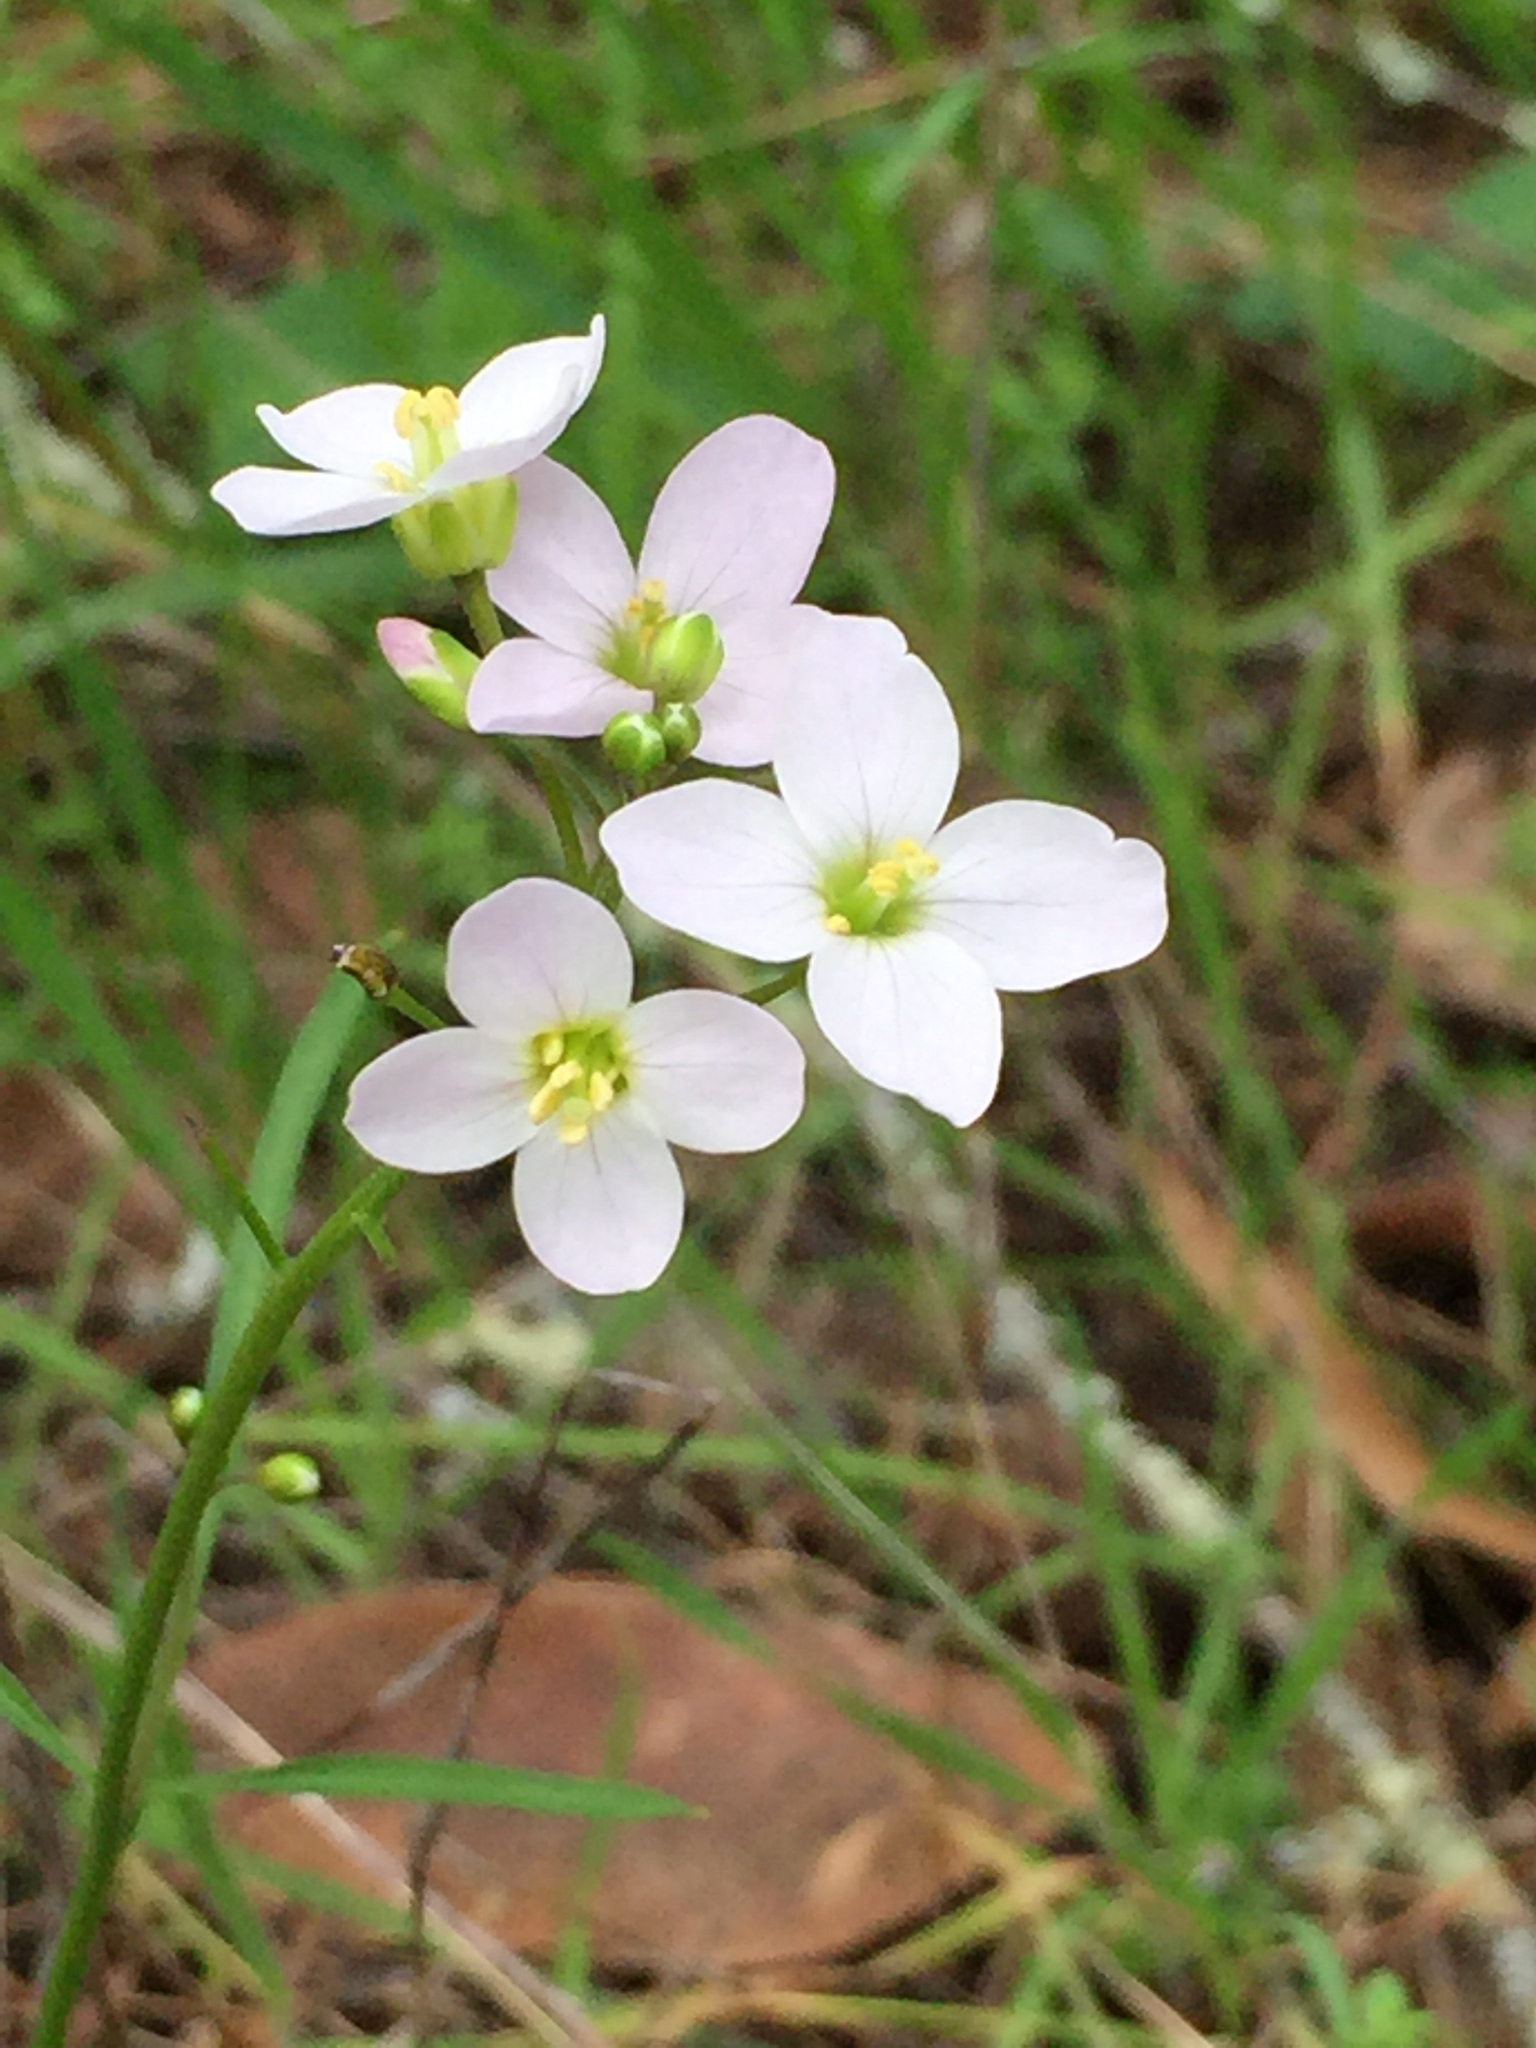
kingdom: Plantae
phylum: Tracheophyta
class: Magnoliopsida
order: Brassicales
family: Brassicaceae
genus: Cardamine
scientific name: Cardamine californica
